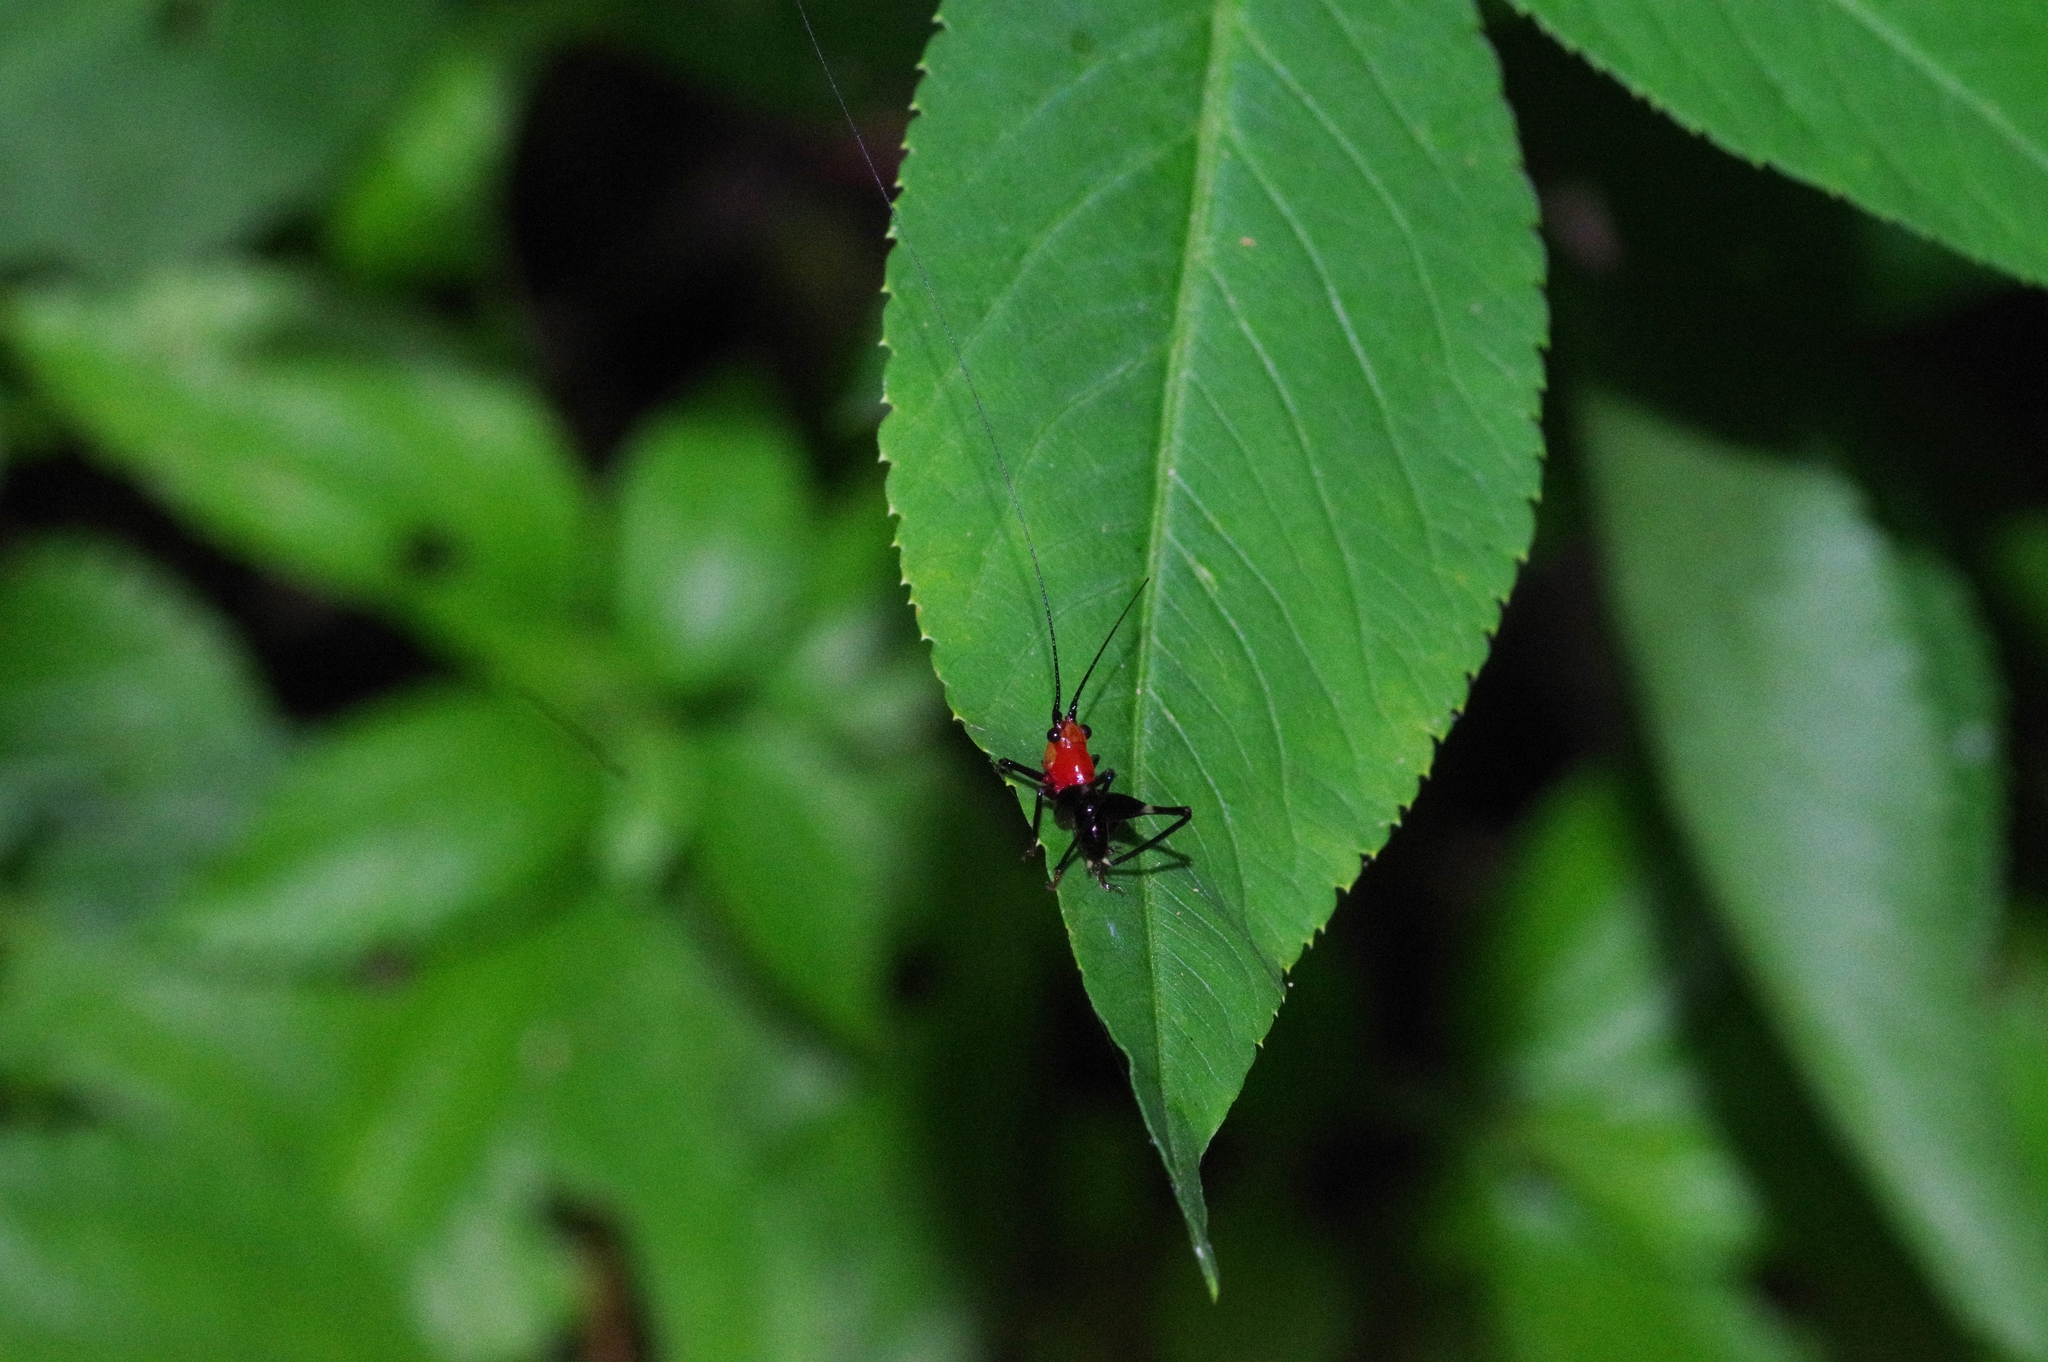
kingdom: Animalia
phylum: Arthropoda
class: Insecta
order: Orthoptera
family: Tettigoniidae
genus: Conocephalus
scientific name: Conocephalus melaenus
